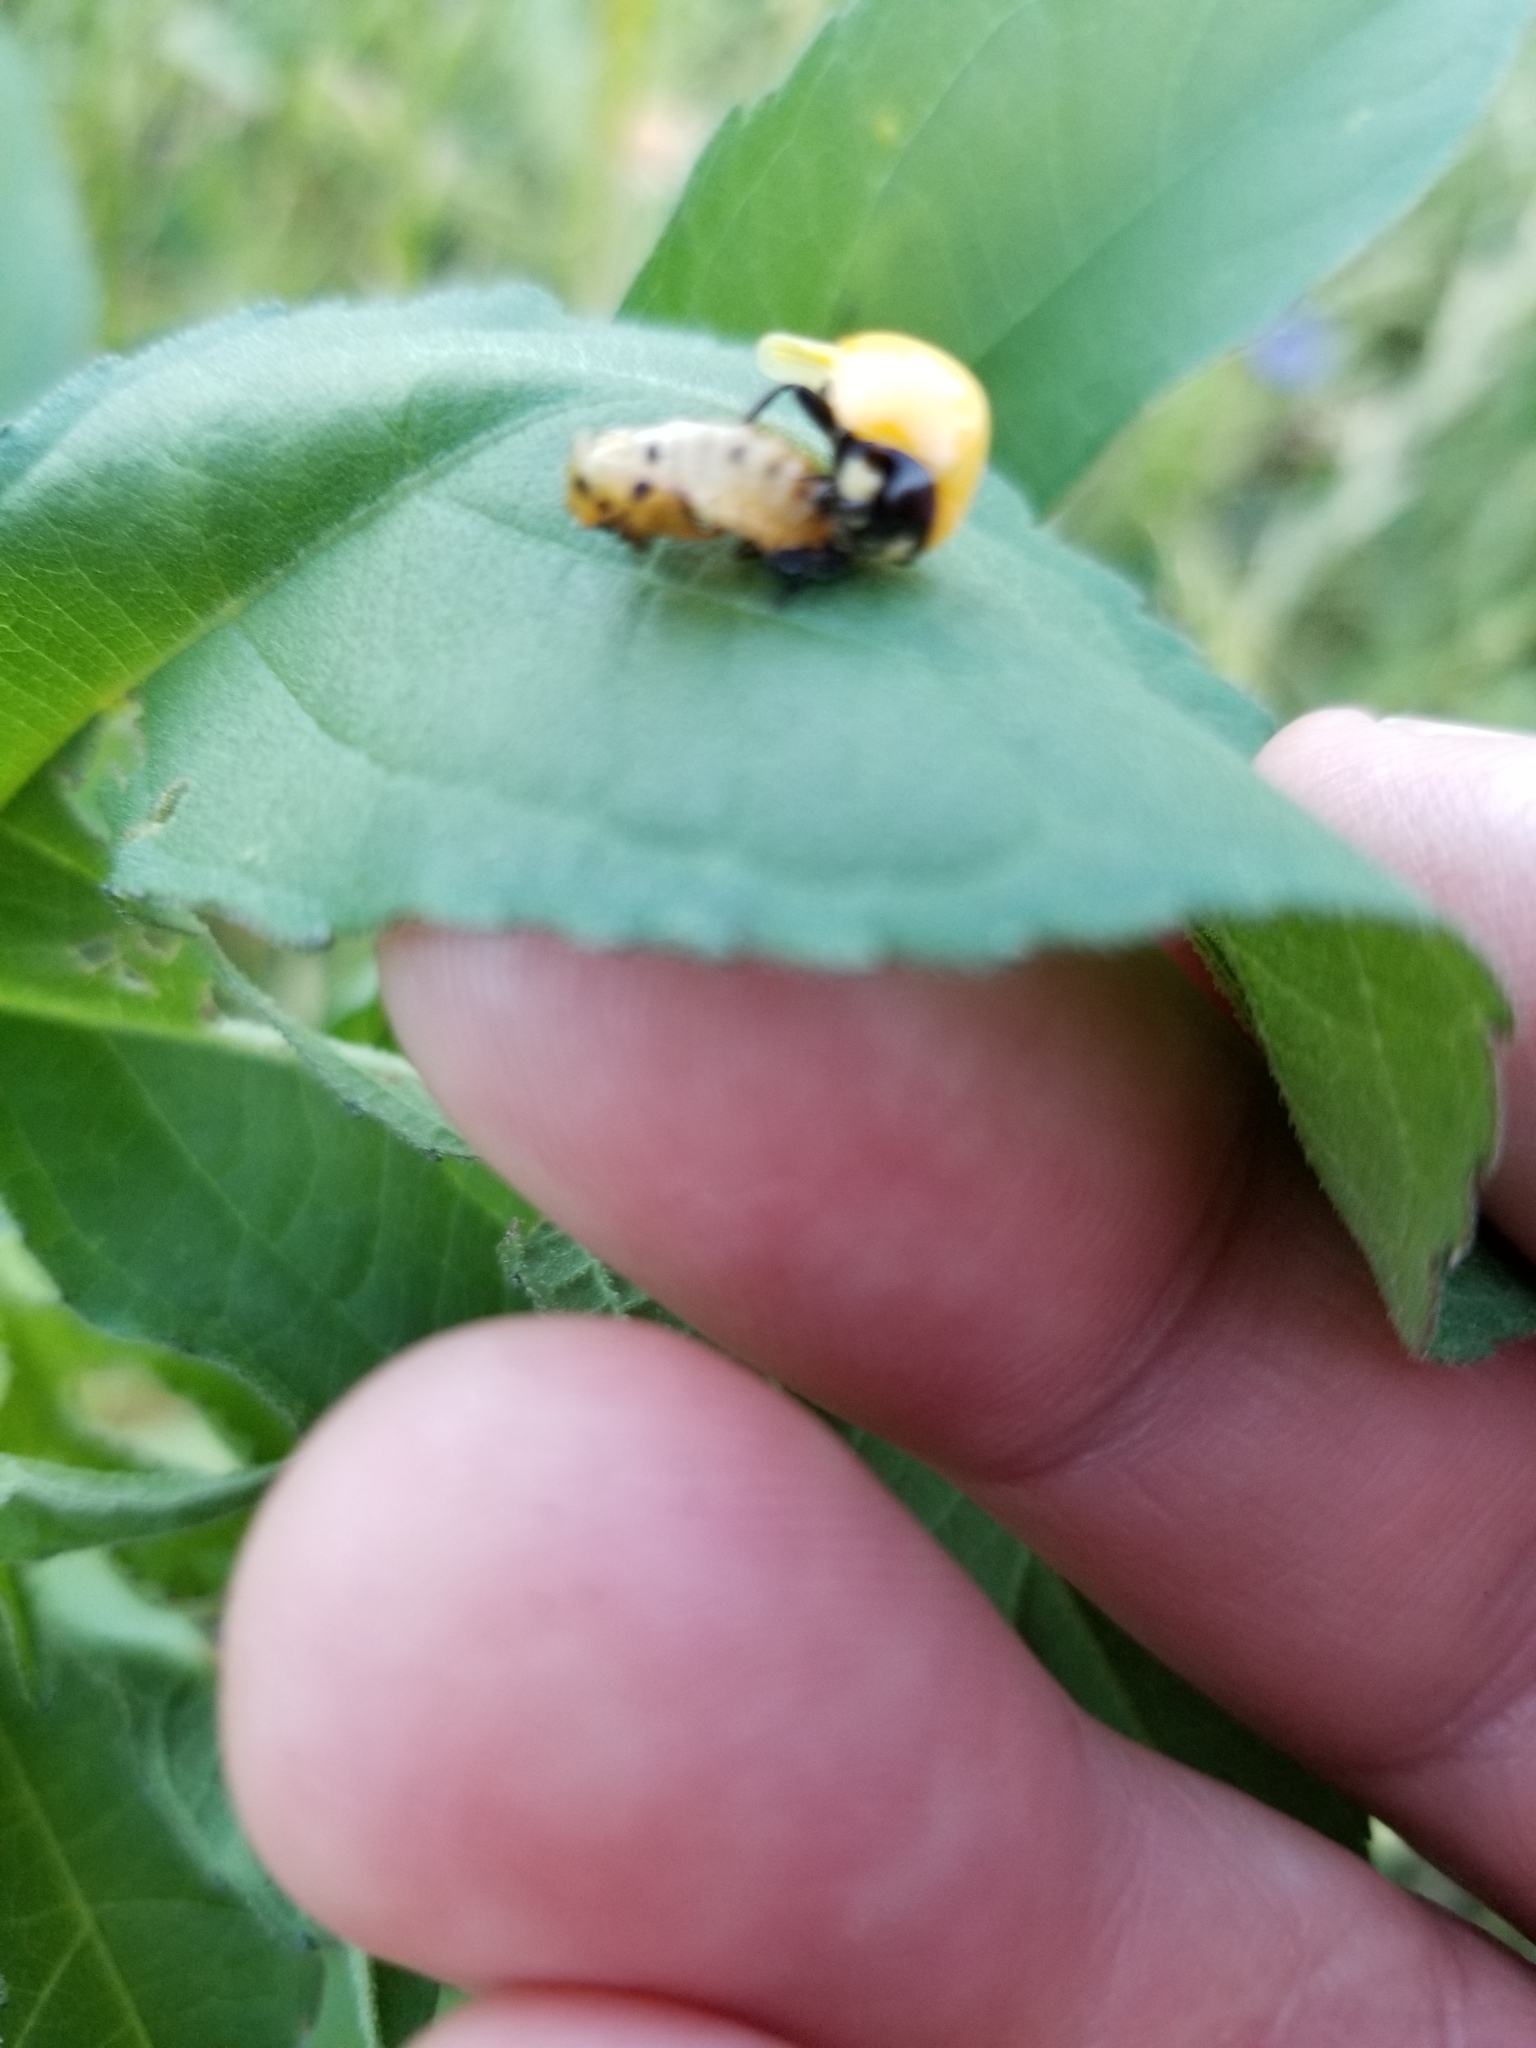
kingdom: Animalia
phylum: Arthropoda
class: Insecta
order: Coleoptera
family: Coccinellidae
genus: Coccinella
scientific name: Coccinella septempunctata
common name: Sevenspotted lady beetle
